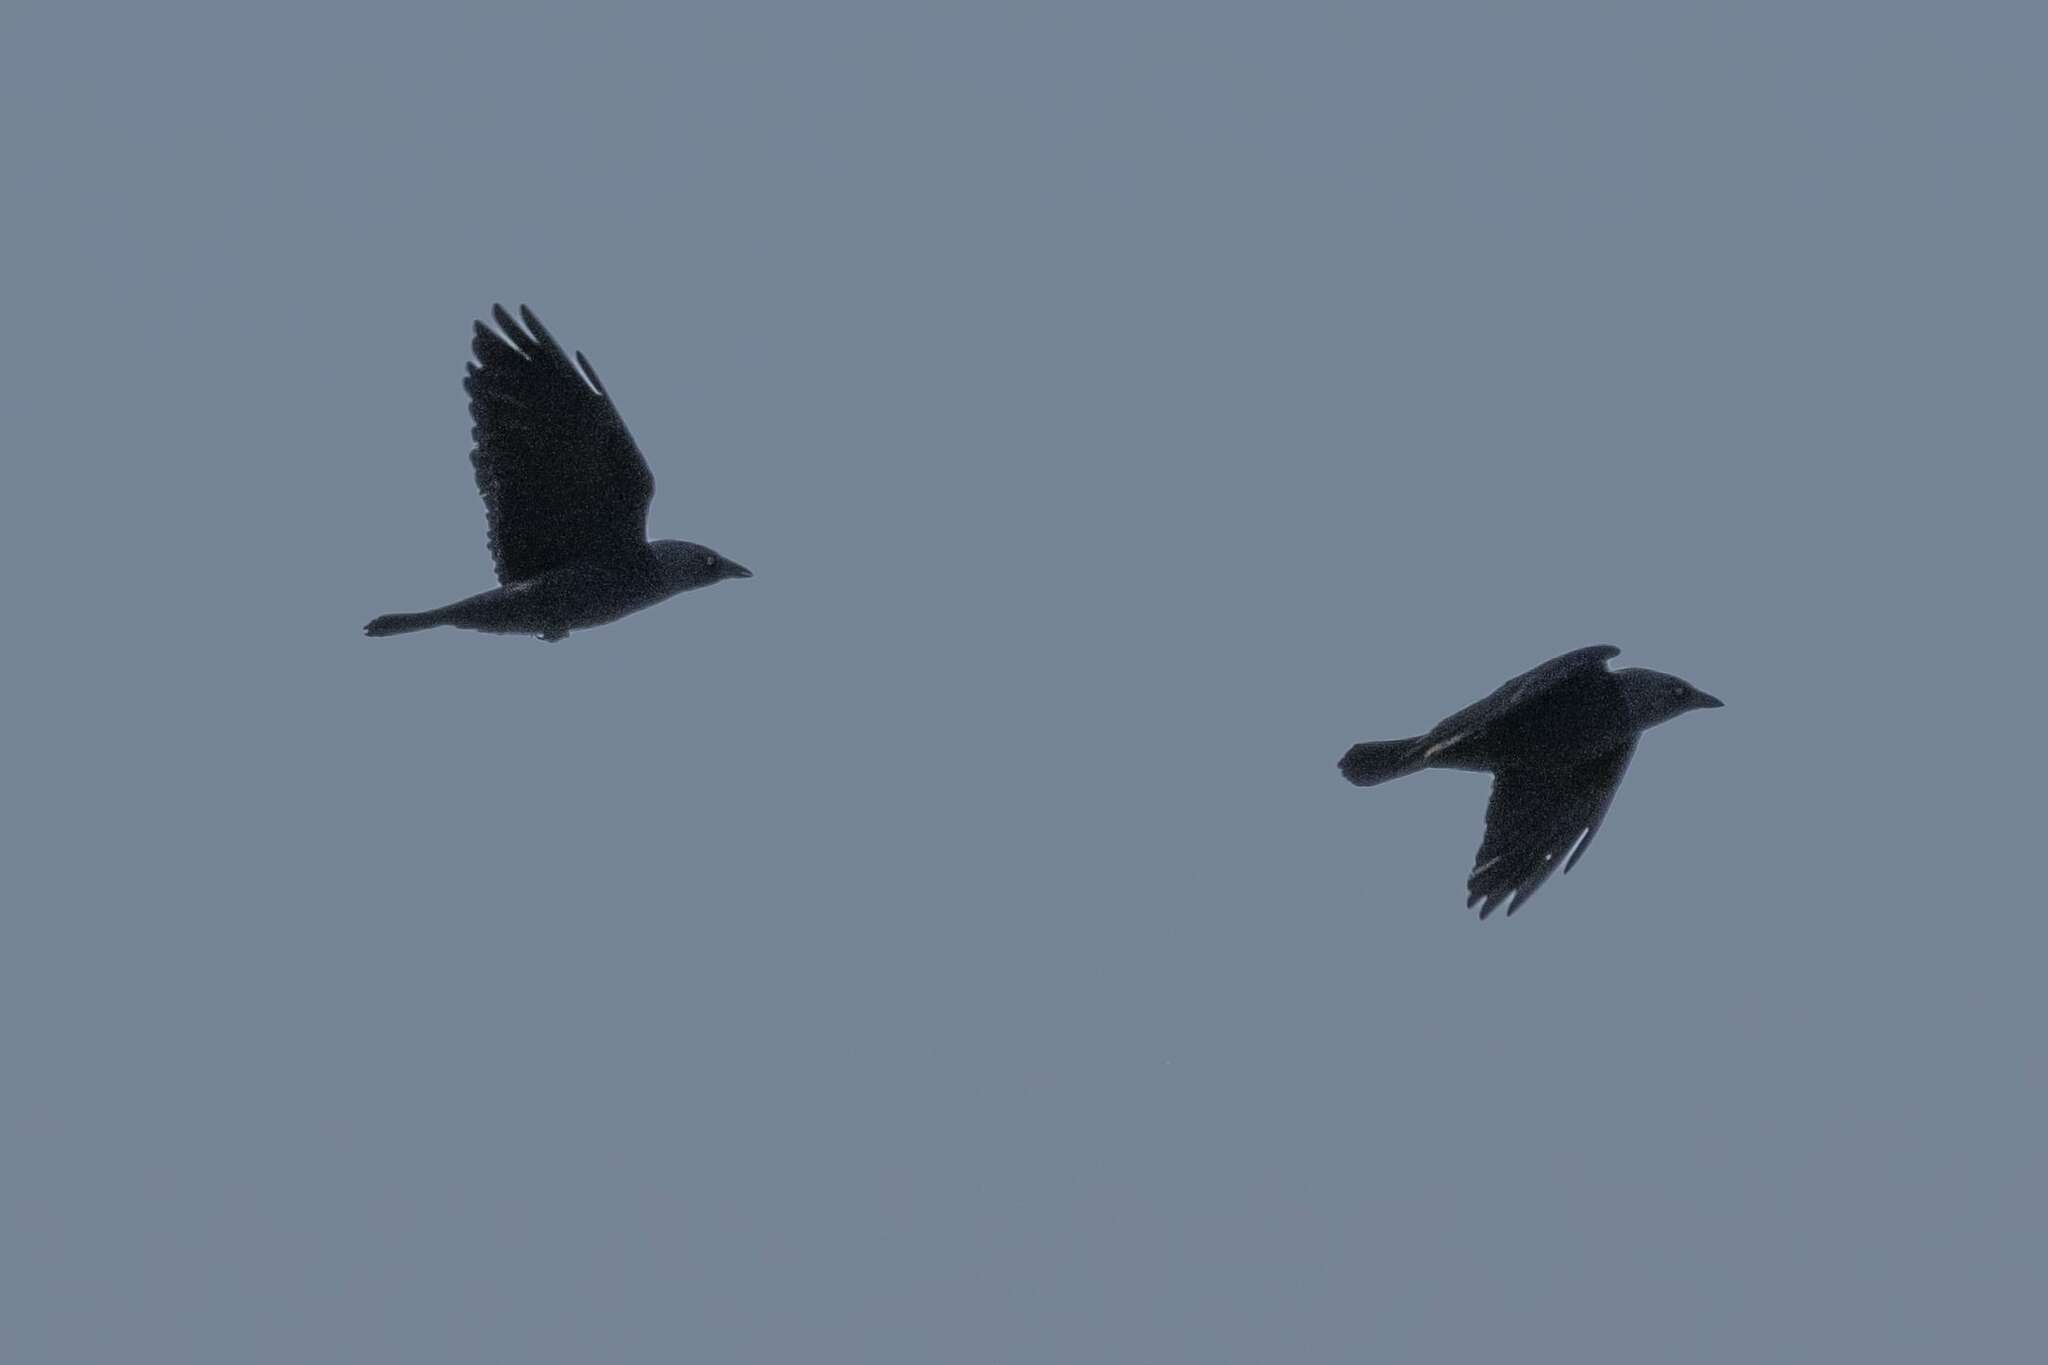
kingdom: Animalia
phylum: Chordata
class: Aves
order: Passeriformes
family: Corvidae
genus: Coloeus
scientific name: Coloeus monedula
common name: Western jackdaw
